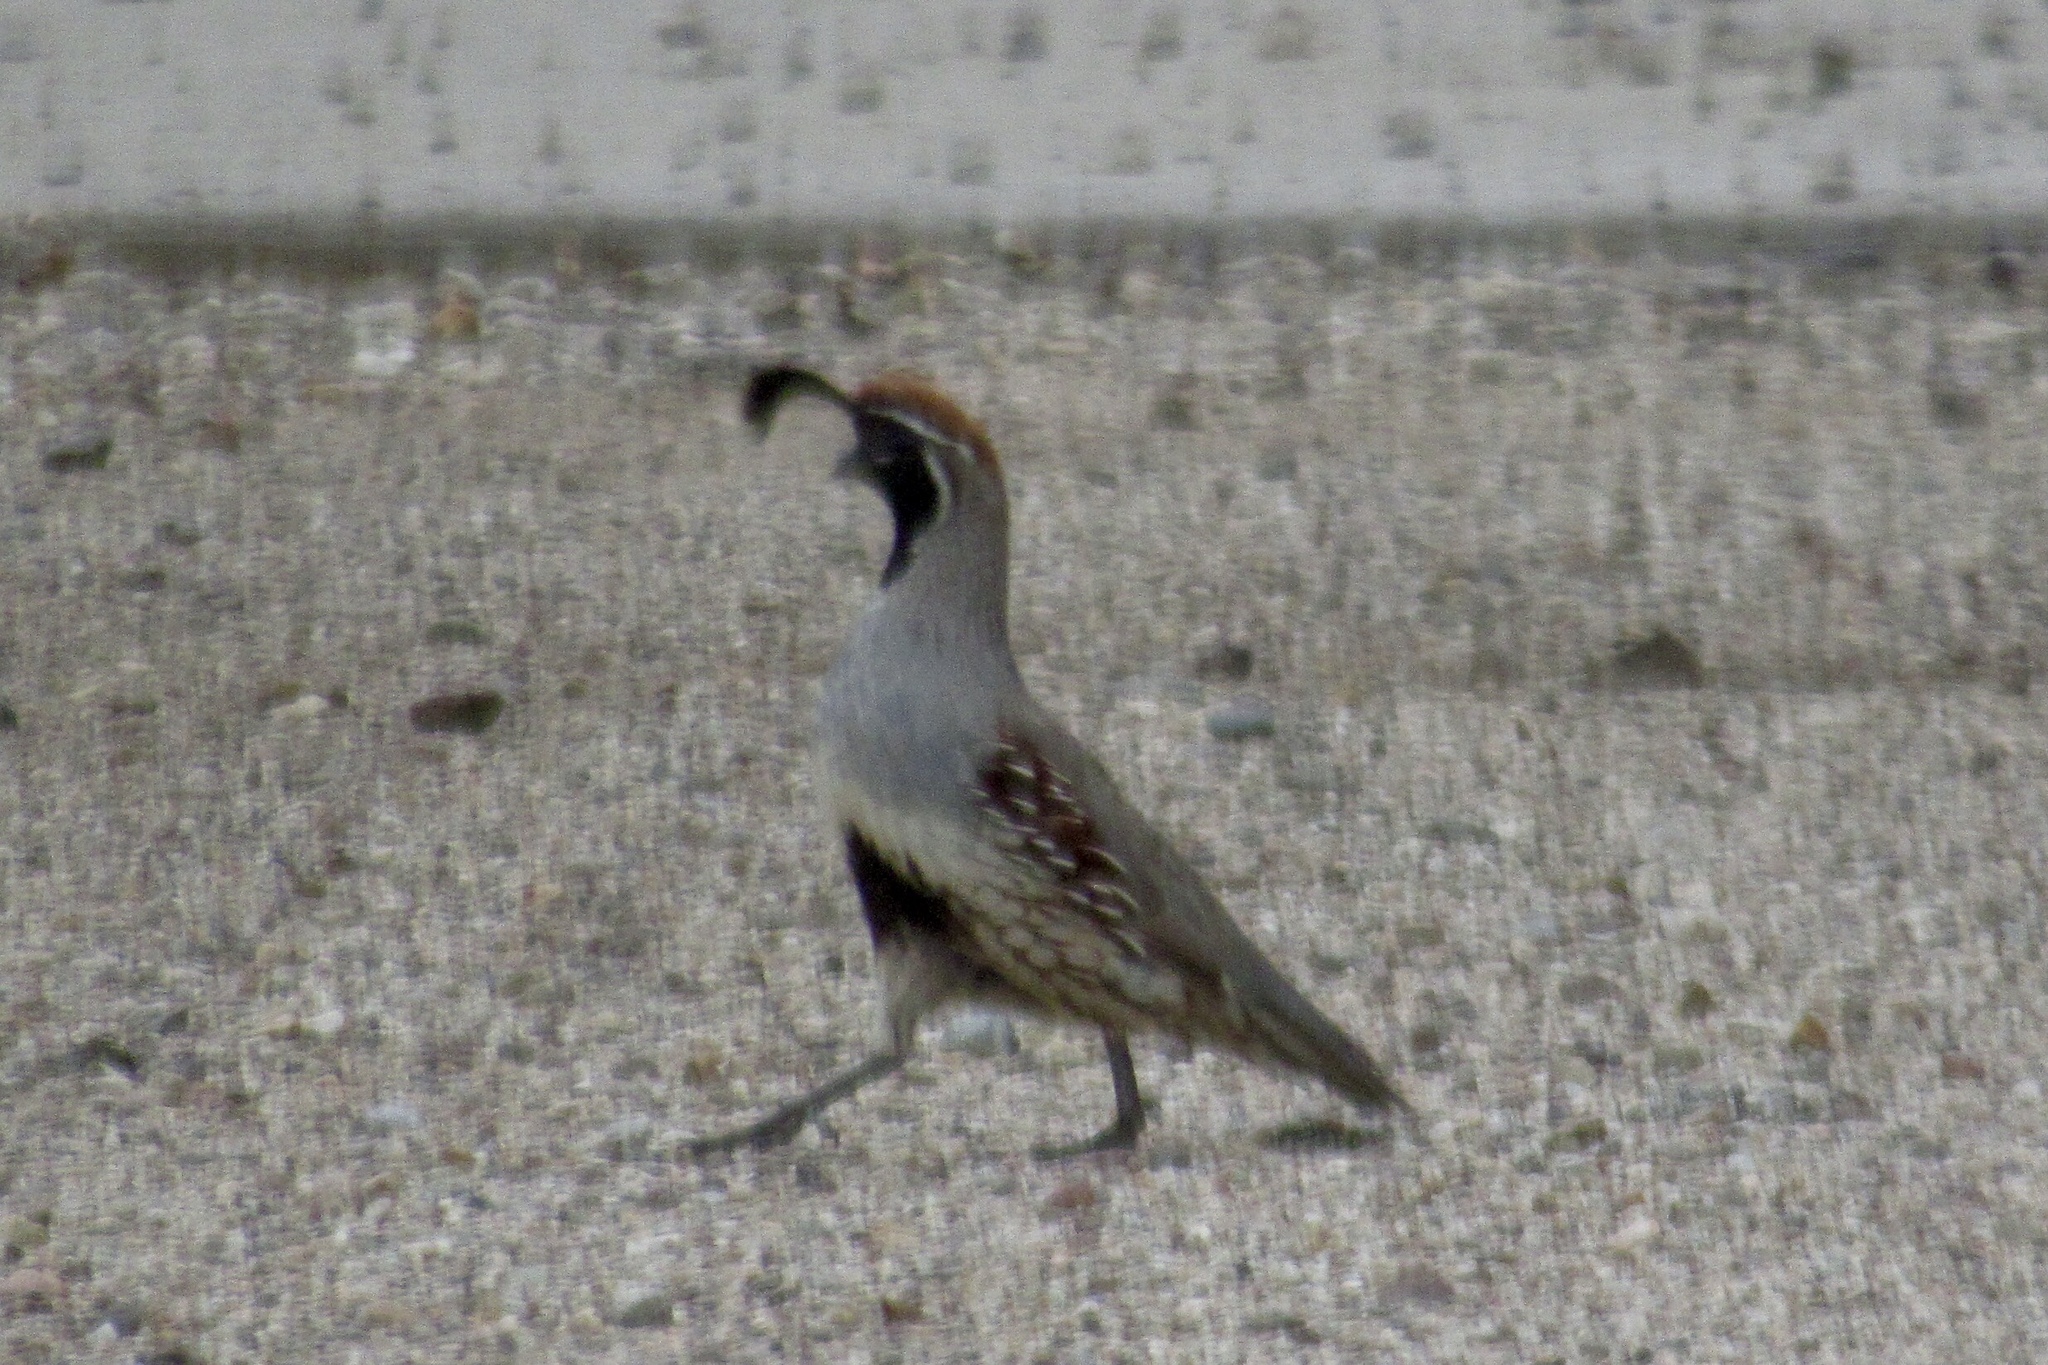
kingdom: Animalia
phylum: Chordata
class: Aves
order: Galliformes
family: Odontophoridae
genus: Callipepla
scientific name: Callipepla gambelii
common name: Gambel's quail
